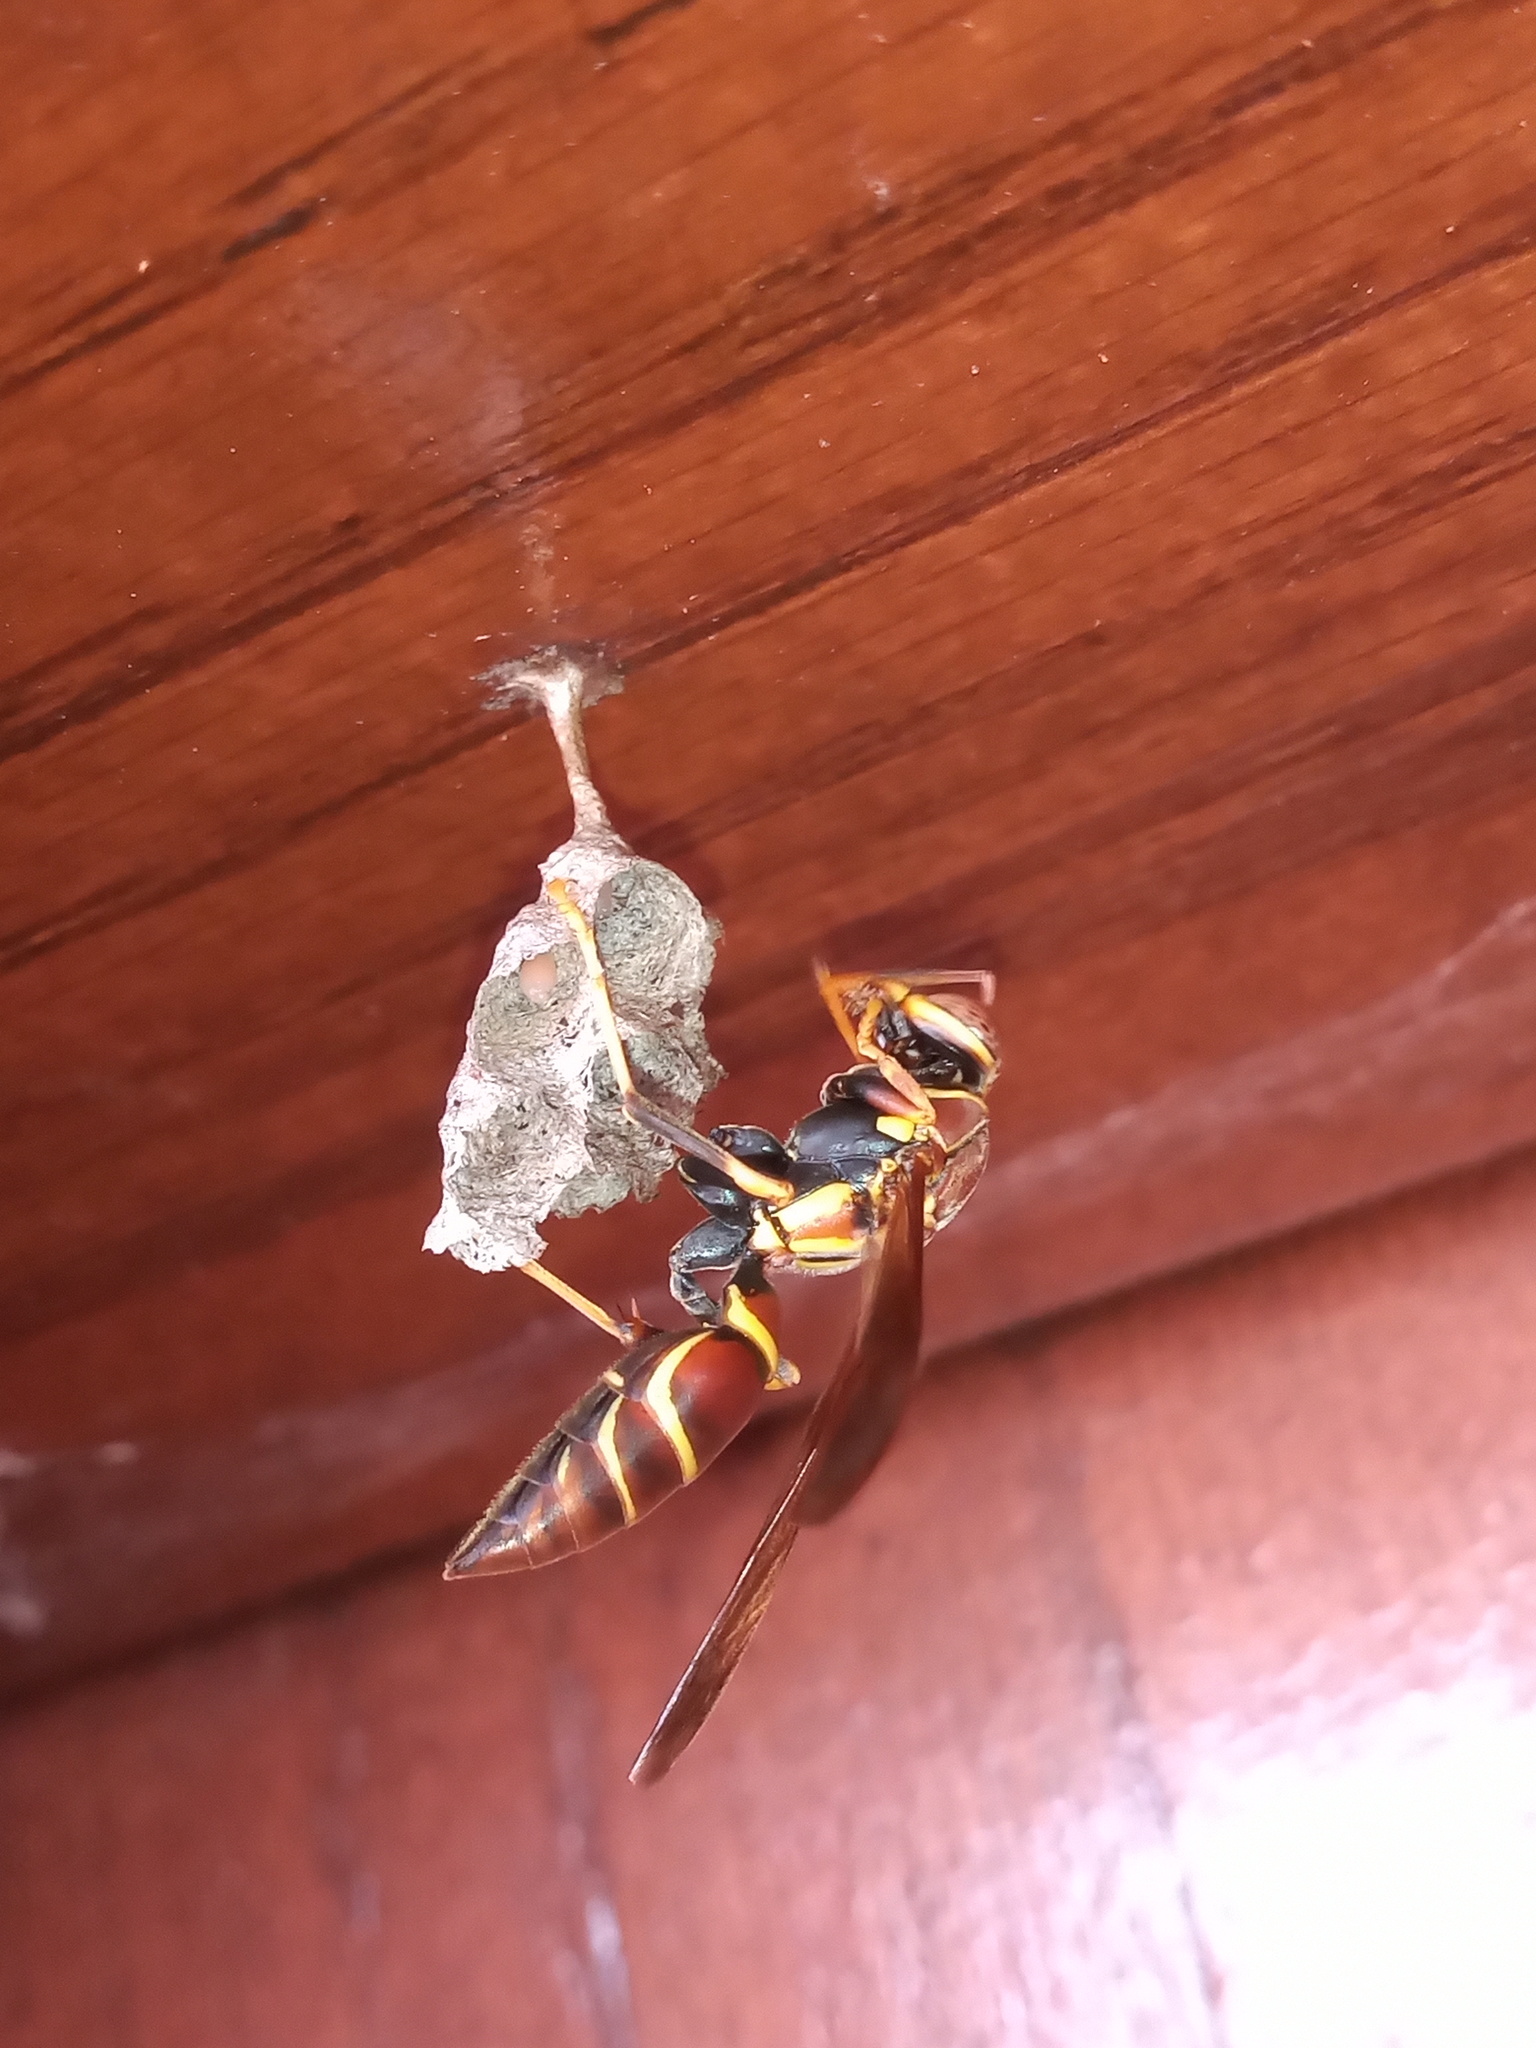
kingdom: Animalia
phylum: Arthropoda
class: Insecta
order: Hymenoptera
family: Eumenidae
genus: Polistes
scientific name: Polistes instabilis
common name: Unstable paper wasp
